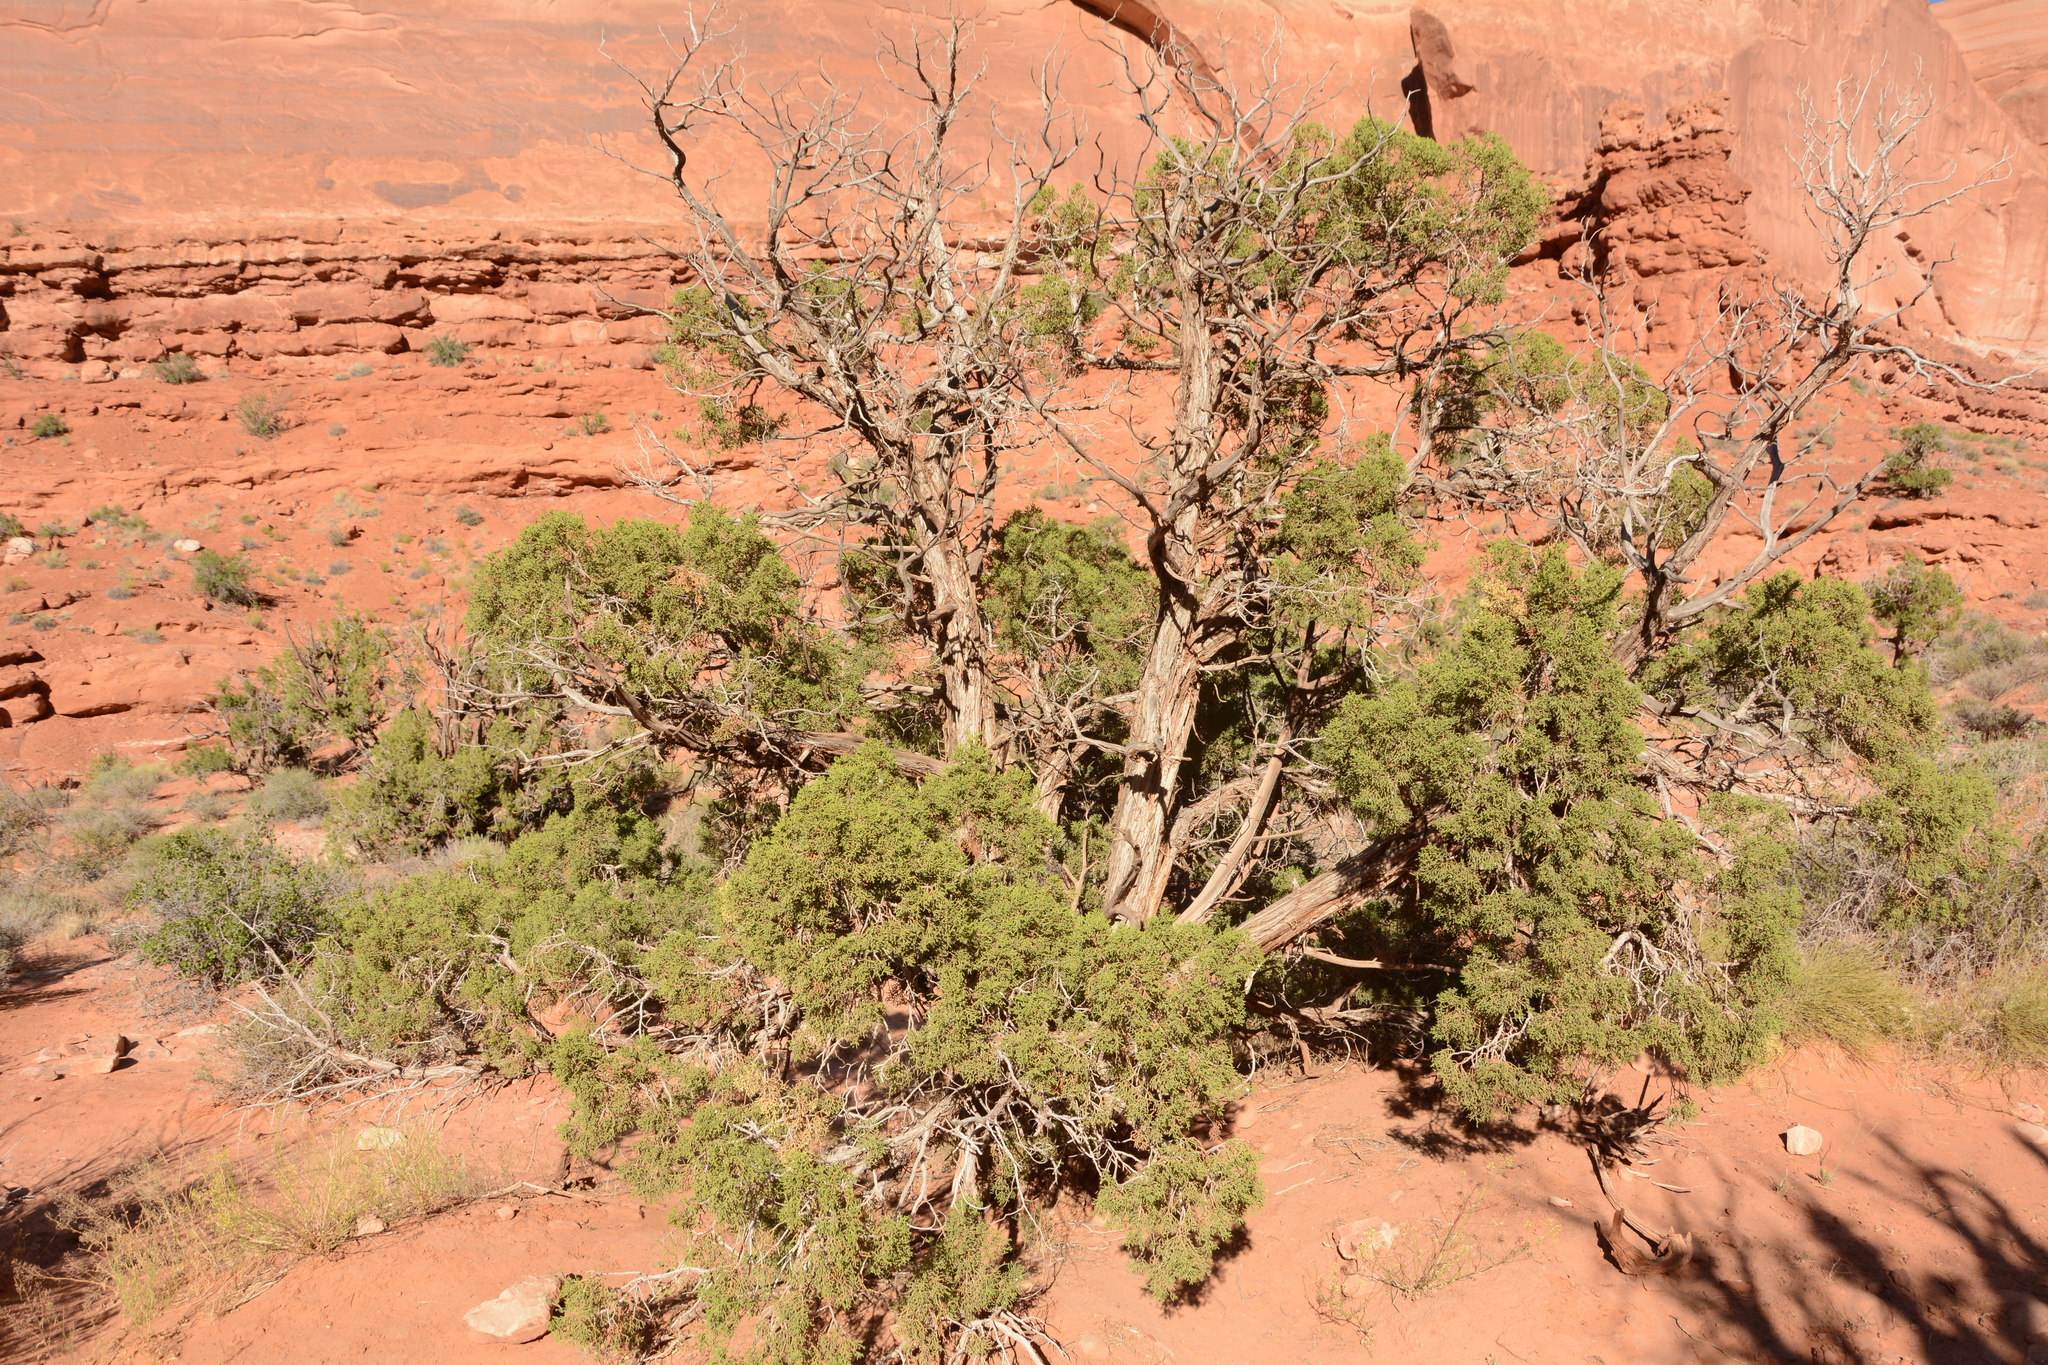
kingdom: Plantae
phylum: Tracheophyta
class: Pinopsida
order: Pinales
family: Cupressaceae
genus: Juniperus
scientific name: Juniperus osteosperma
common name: Utah juniper
